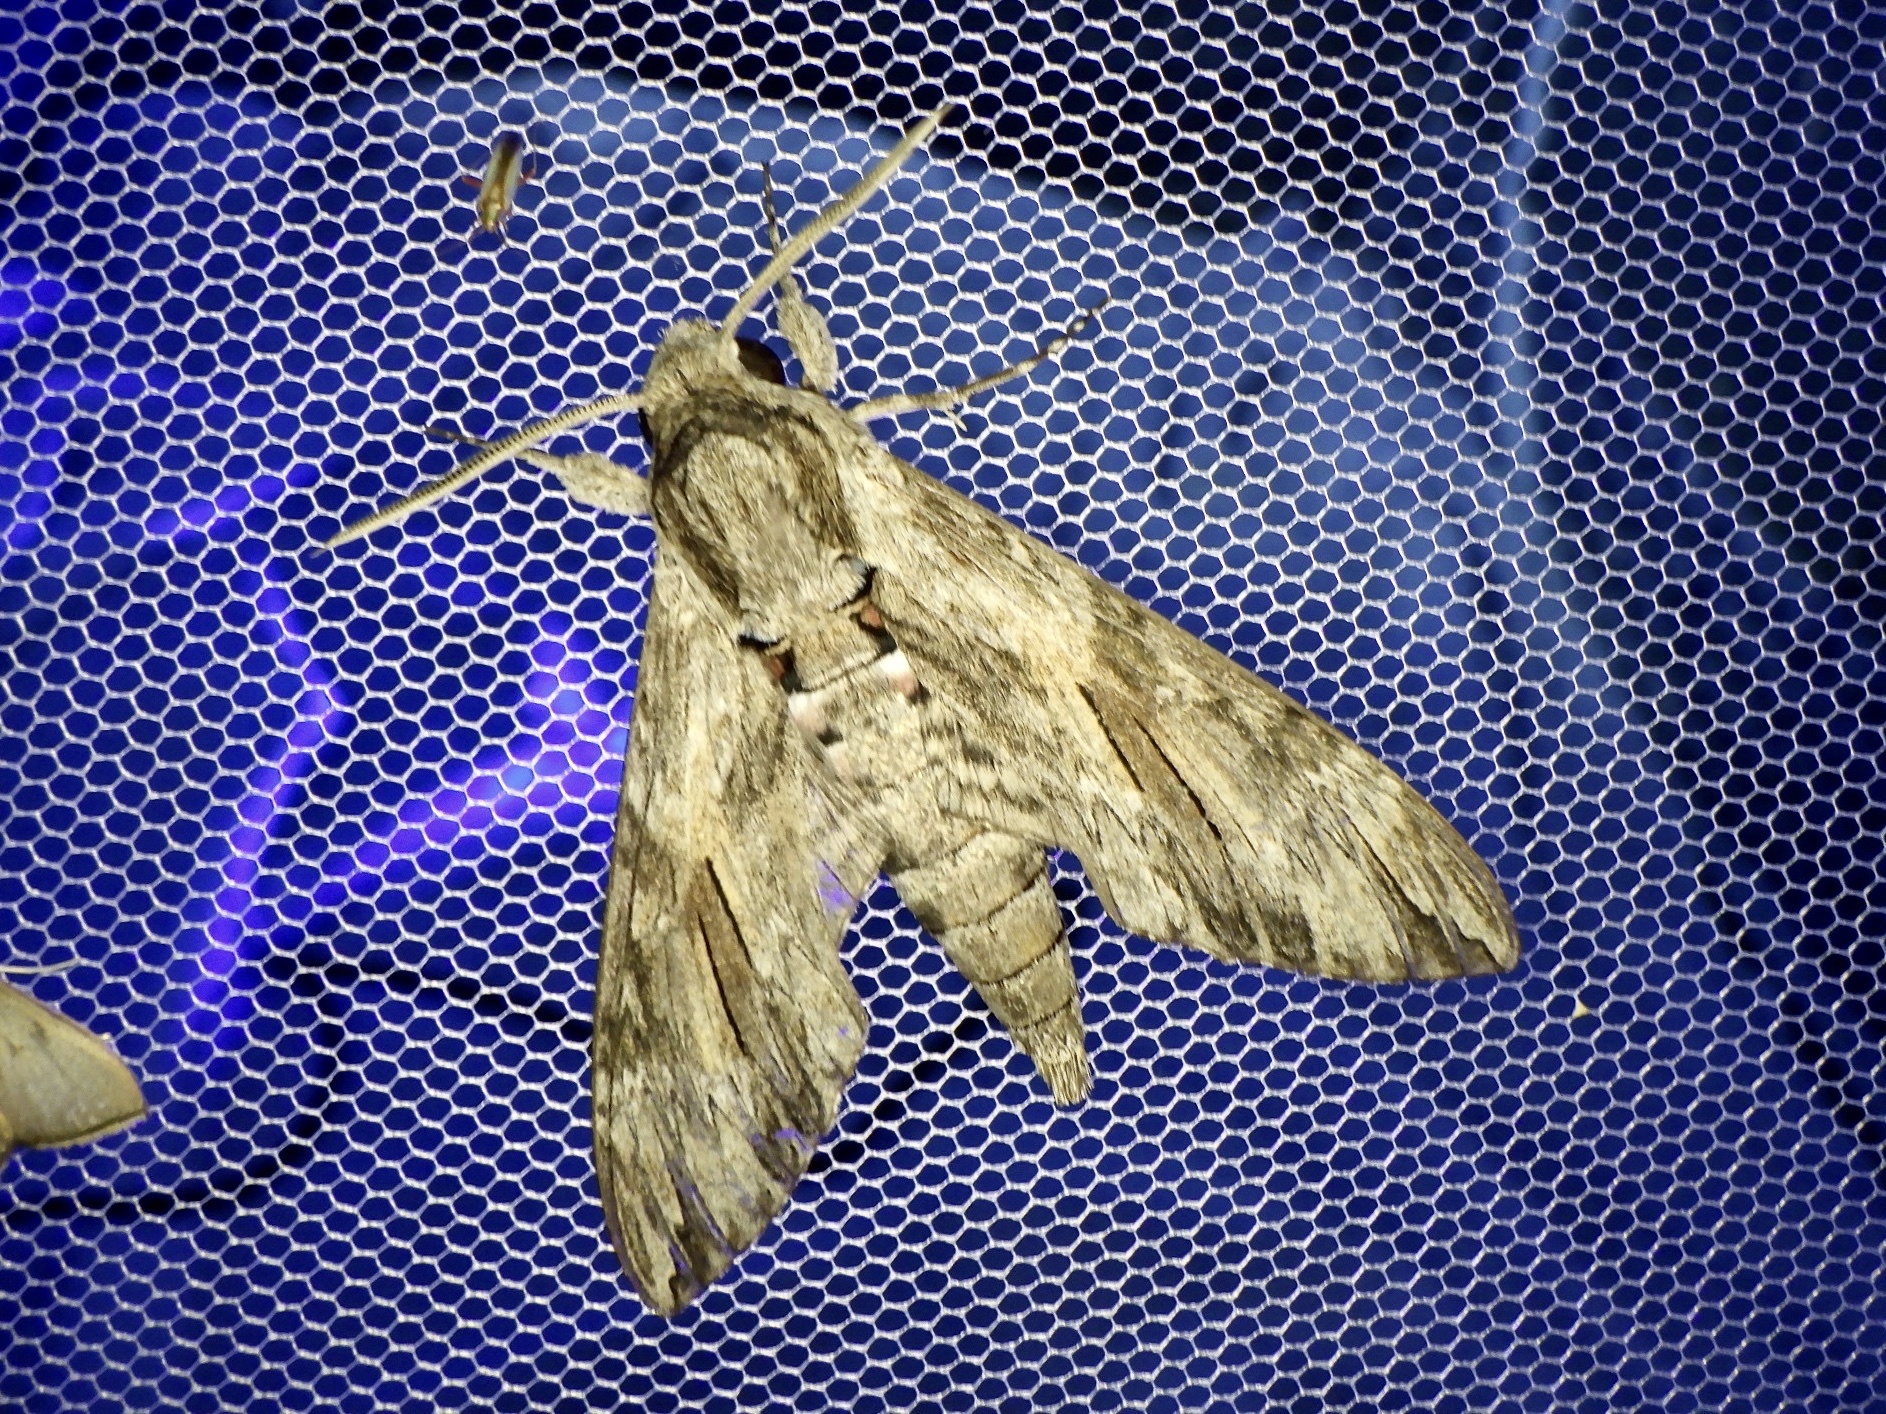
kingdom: Animalia
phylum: Arthropoda
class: Insecta
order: Lepidoptera
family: Sphingidae
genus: Agrius
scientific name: Agrius convolvuli
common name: Convolvulus hawkmoth
